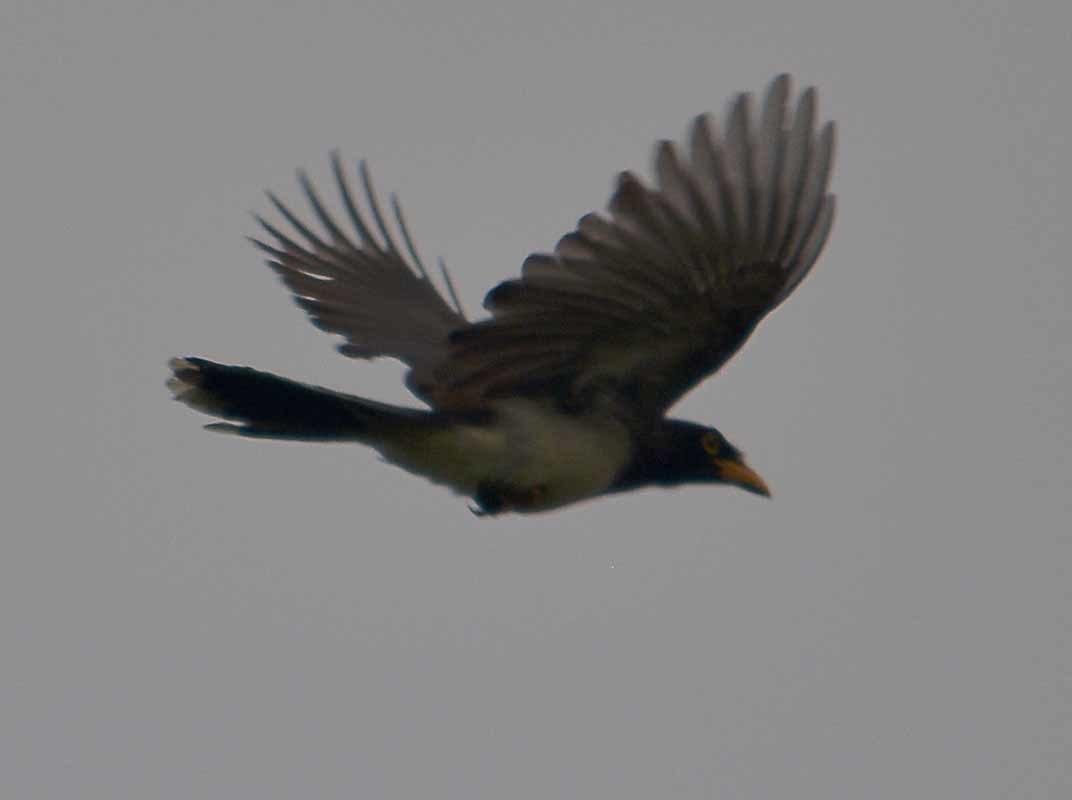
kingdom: Animalia
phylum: Chordata
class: Aves
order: Passeriformes
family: Corvidae
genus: Psilorhinus
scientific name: Psilorhinus morio
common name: Brown jay
